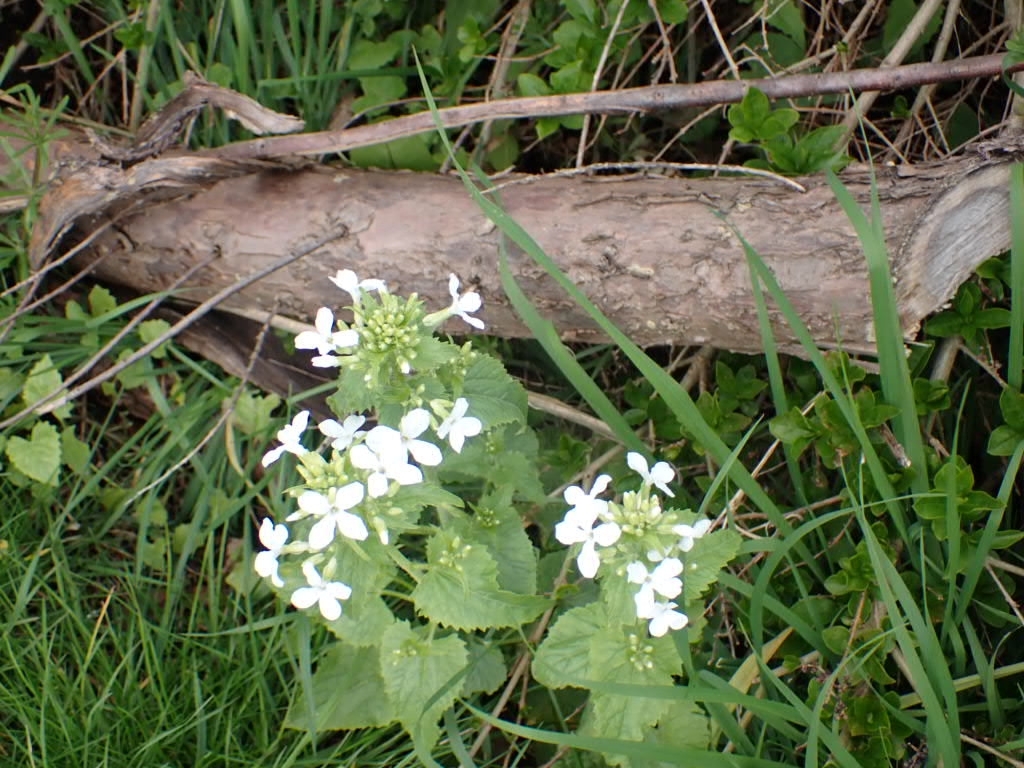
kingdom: Plantae
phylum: Tracheophyta
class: Magnoliopsida
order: Brassicales
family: Brassicaceae
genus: Lunaria
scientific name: Lunaria annua
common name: Honesty
